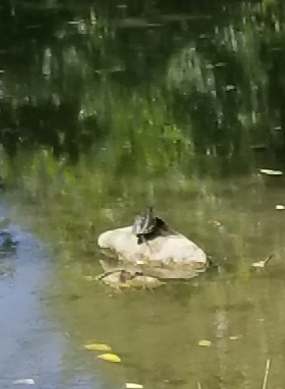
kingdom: Animalia
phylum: Chordata
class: Testudines
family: Chelydridae
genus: Chelydra
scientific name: Chelydra serpentina
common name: Common snapping turtle
